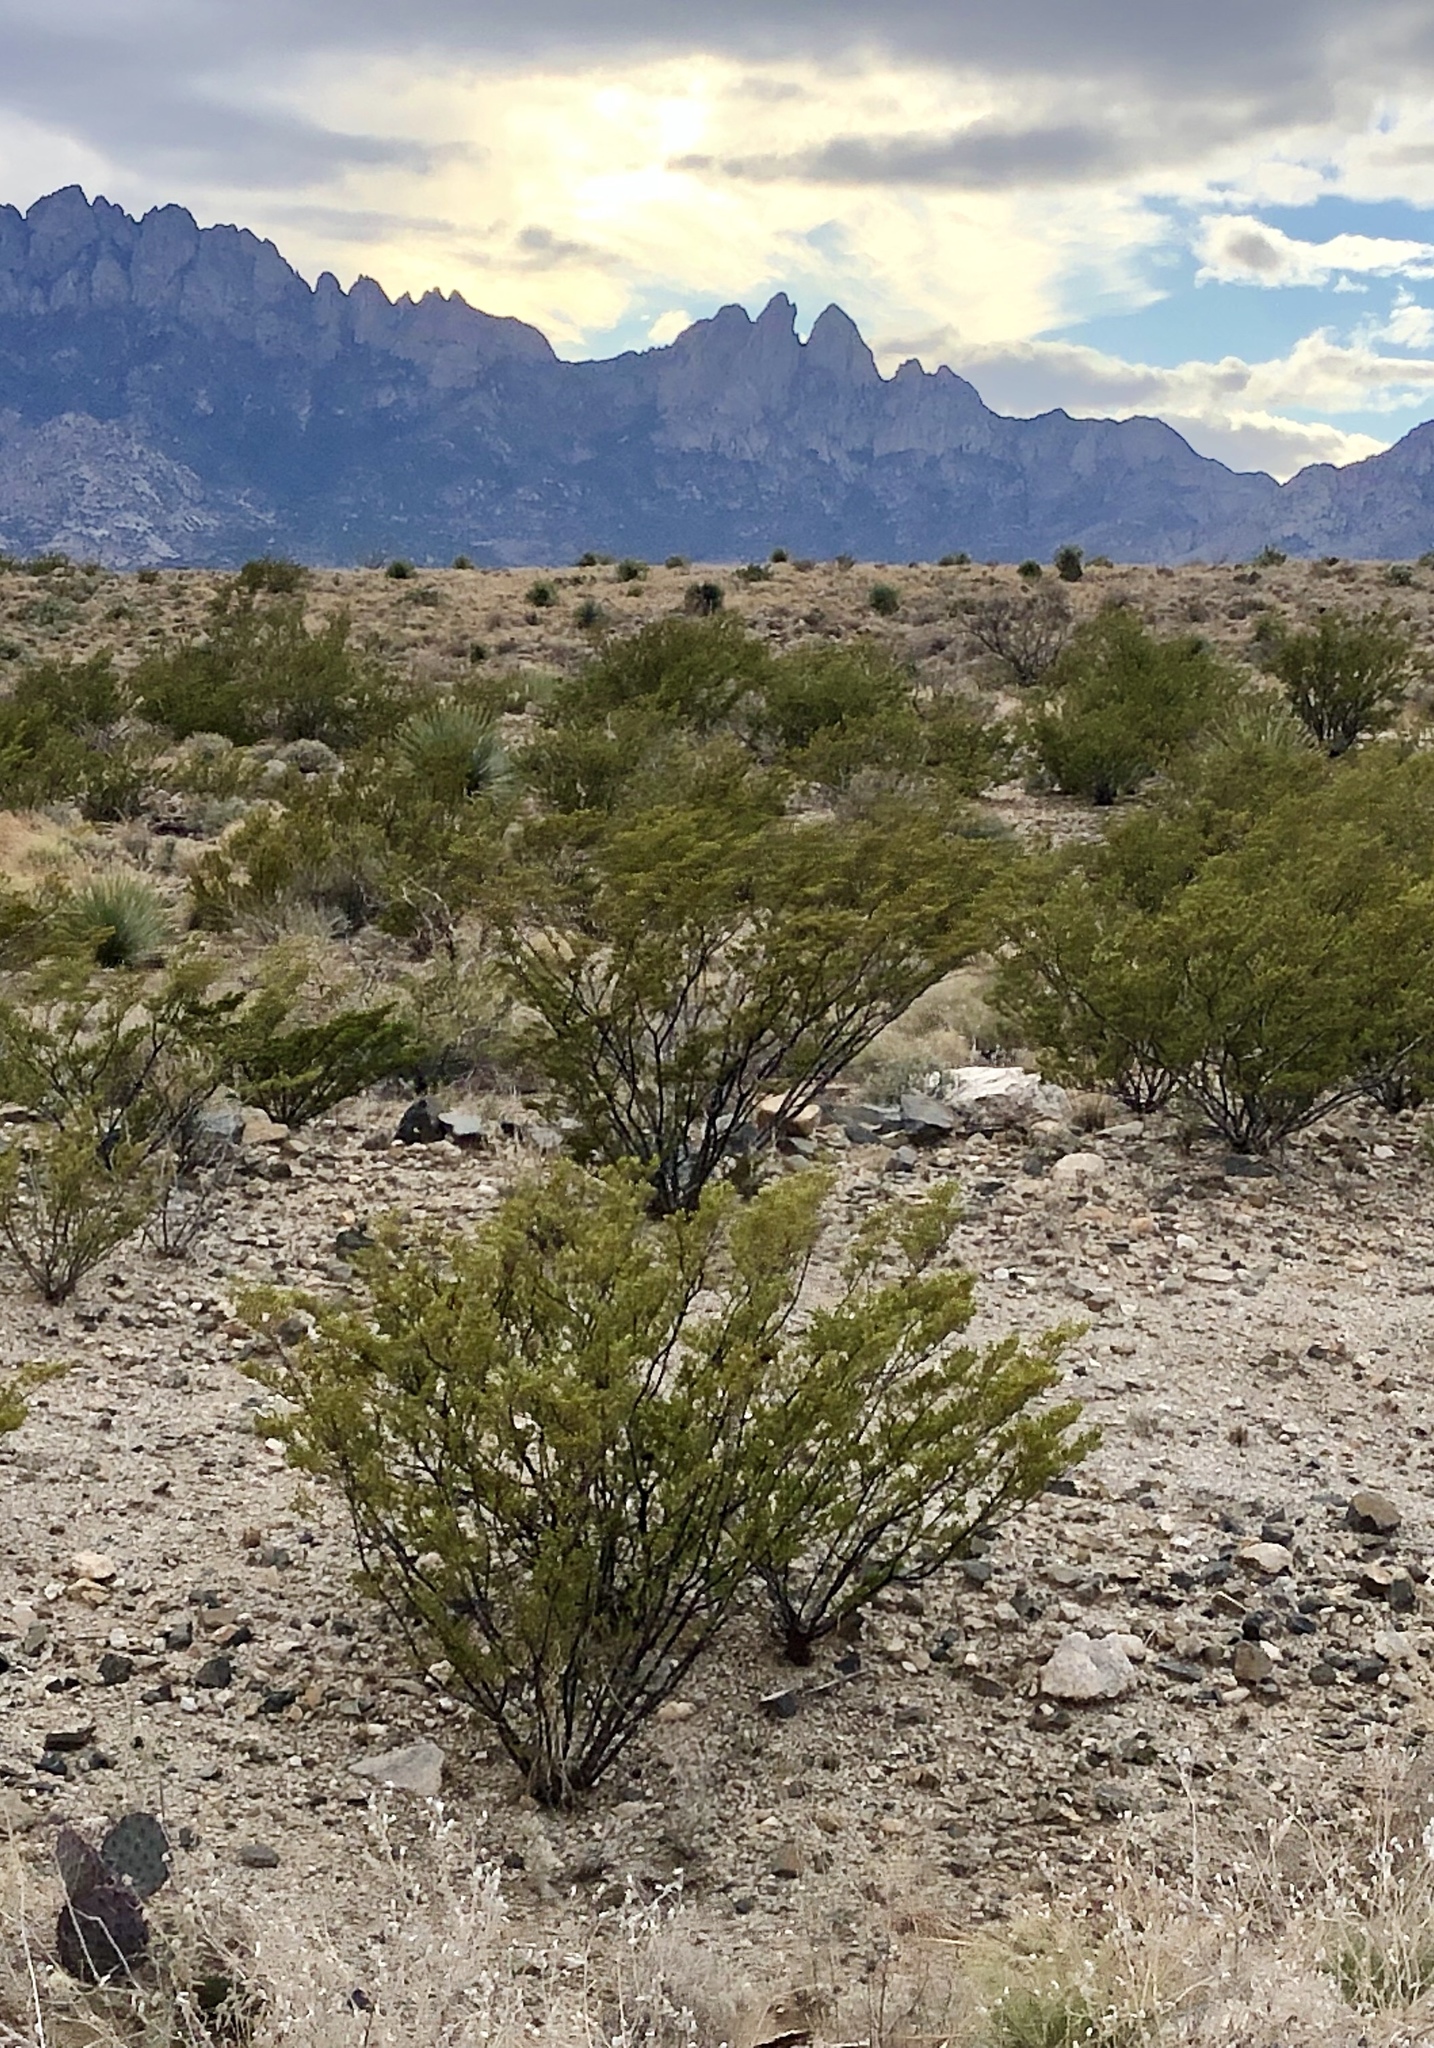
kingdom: Plantae
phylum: Tracheophyta
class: Magnoliopsida
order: Zygophyllales
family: Zygophyllaceae
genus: Larrea
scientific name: Larrea tridentata
